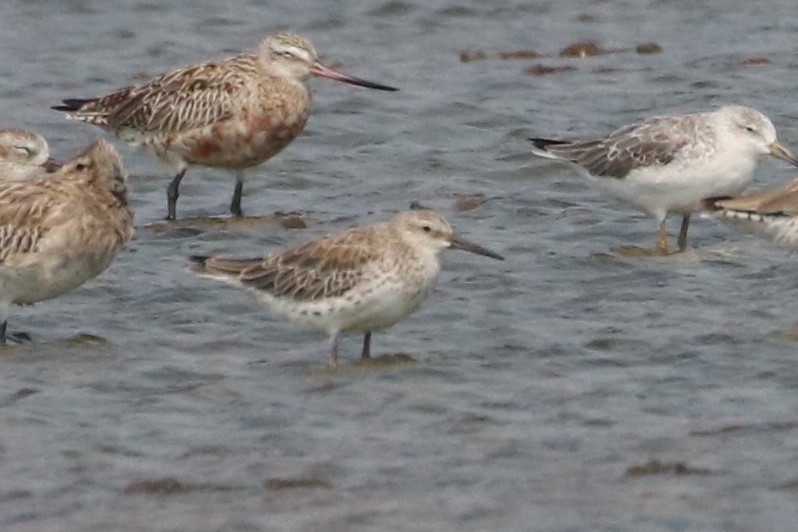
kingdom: Animalia
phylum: Chordata
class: Aves
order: Charadriiformes
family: Scolopacidae
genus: Calidris
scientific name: Calidris tenuirostris
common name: Great knot
